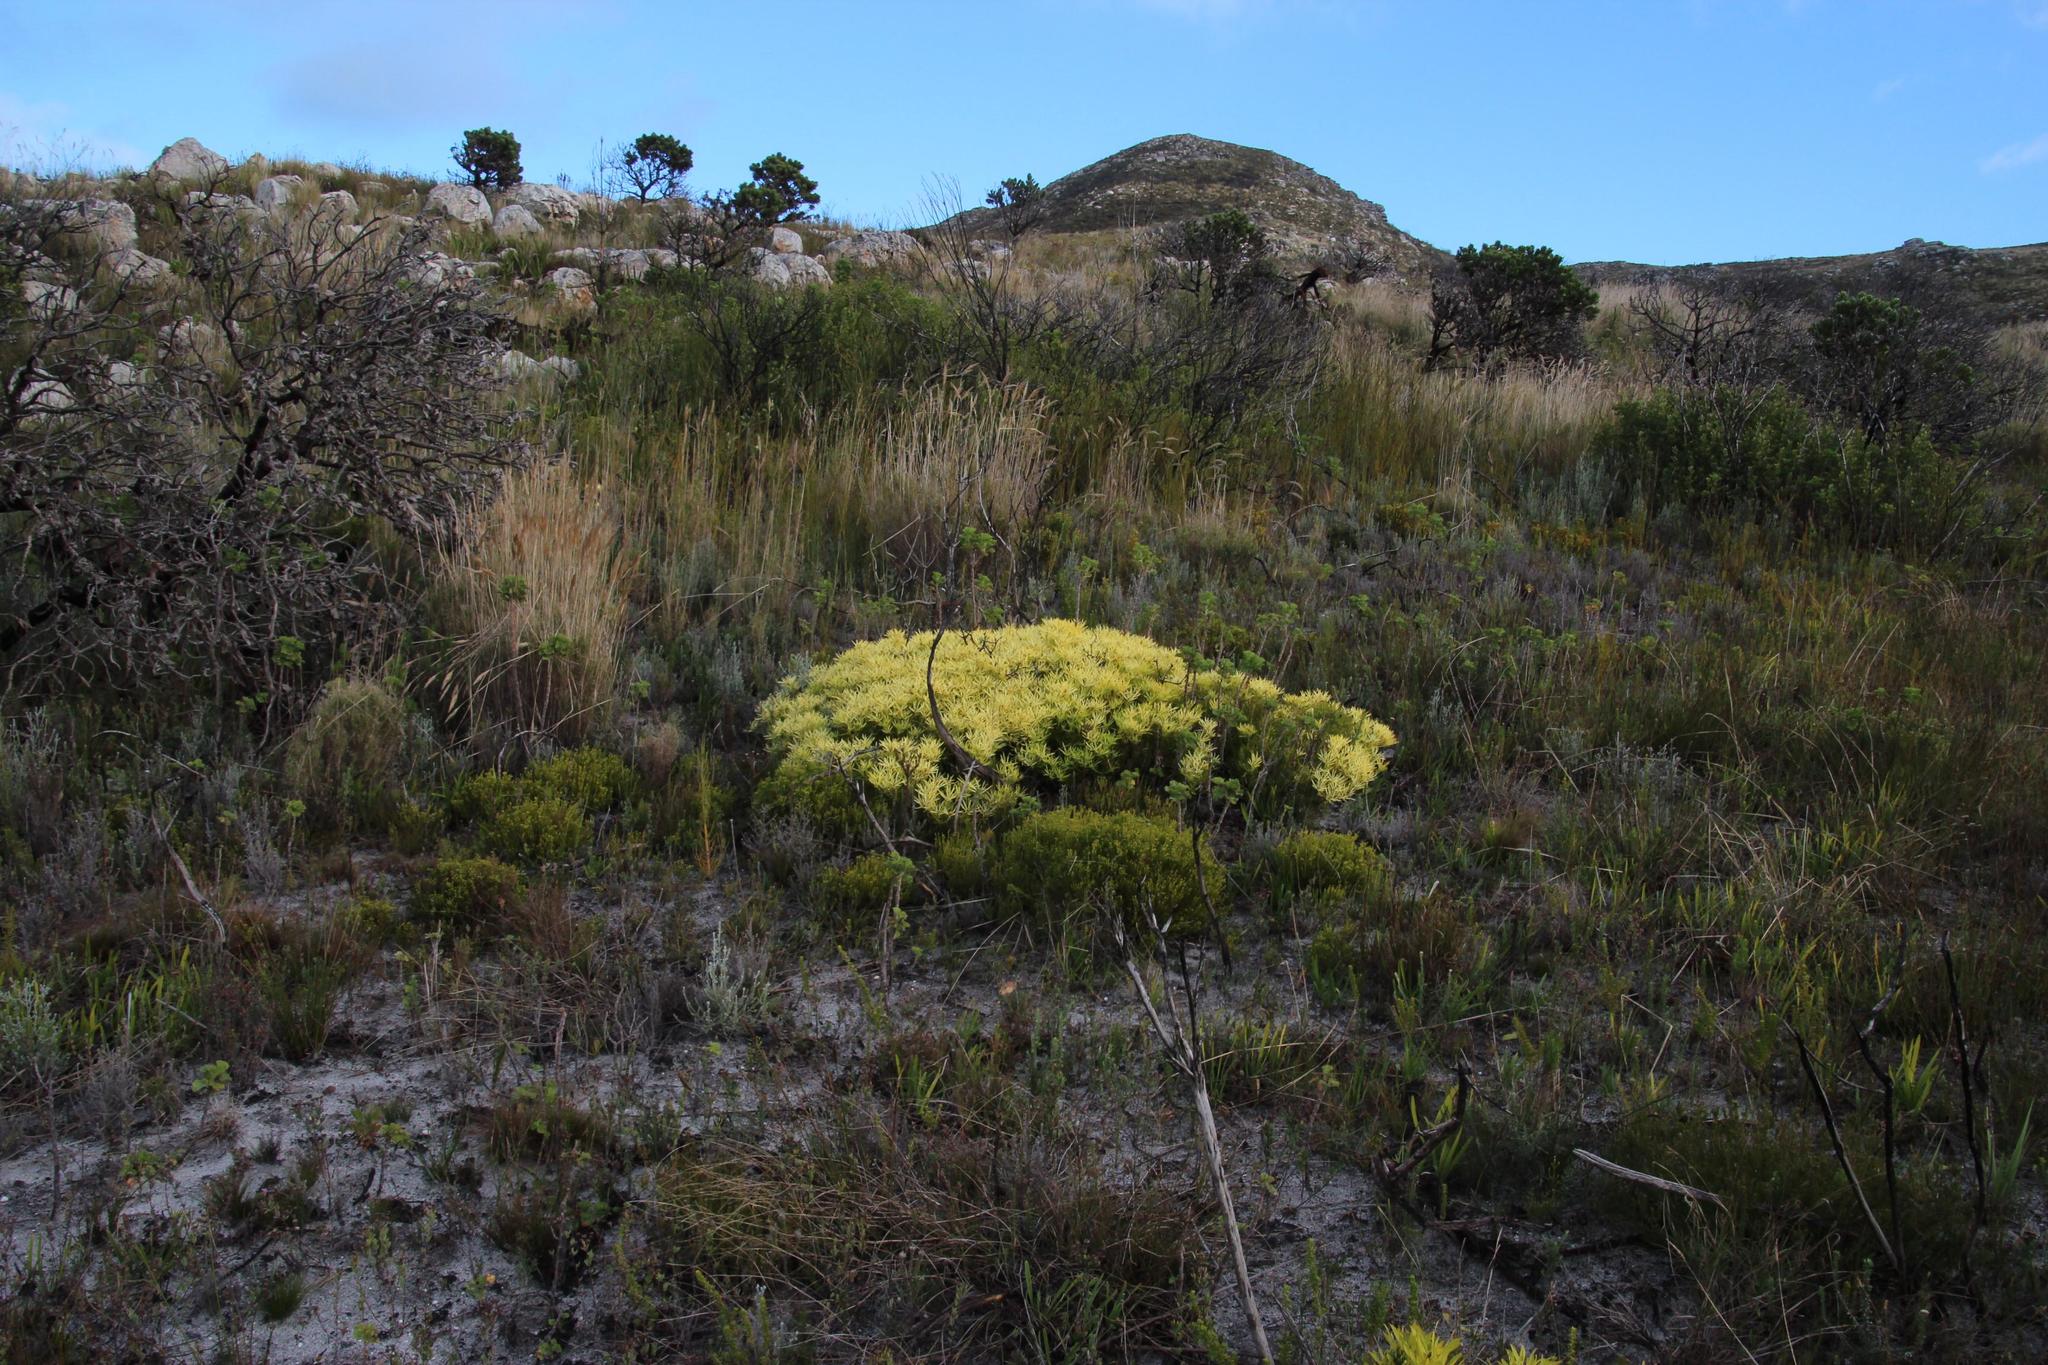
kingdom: Plantae
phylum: Tracheophyta
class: Magnoliopsida
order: Proteales
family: Proteaceae
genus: Leucadendron
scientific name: Leucadendron salignum
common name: Common sunshine conebush
